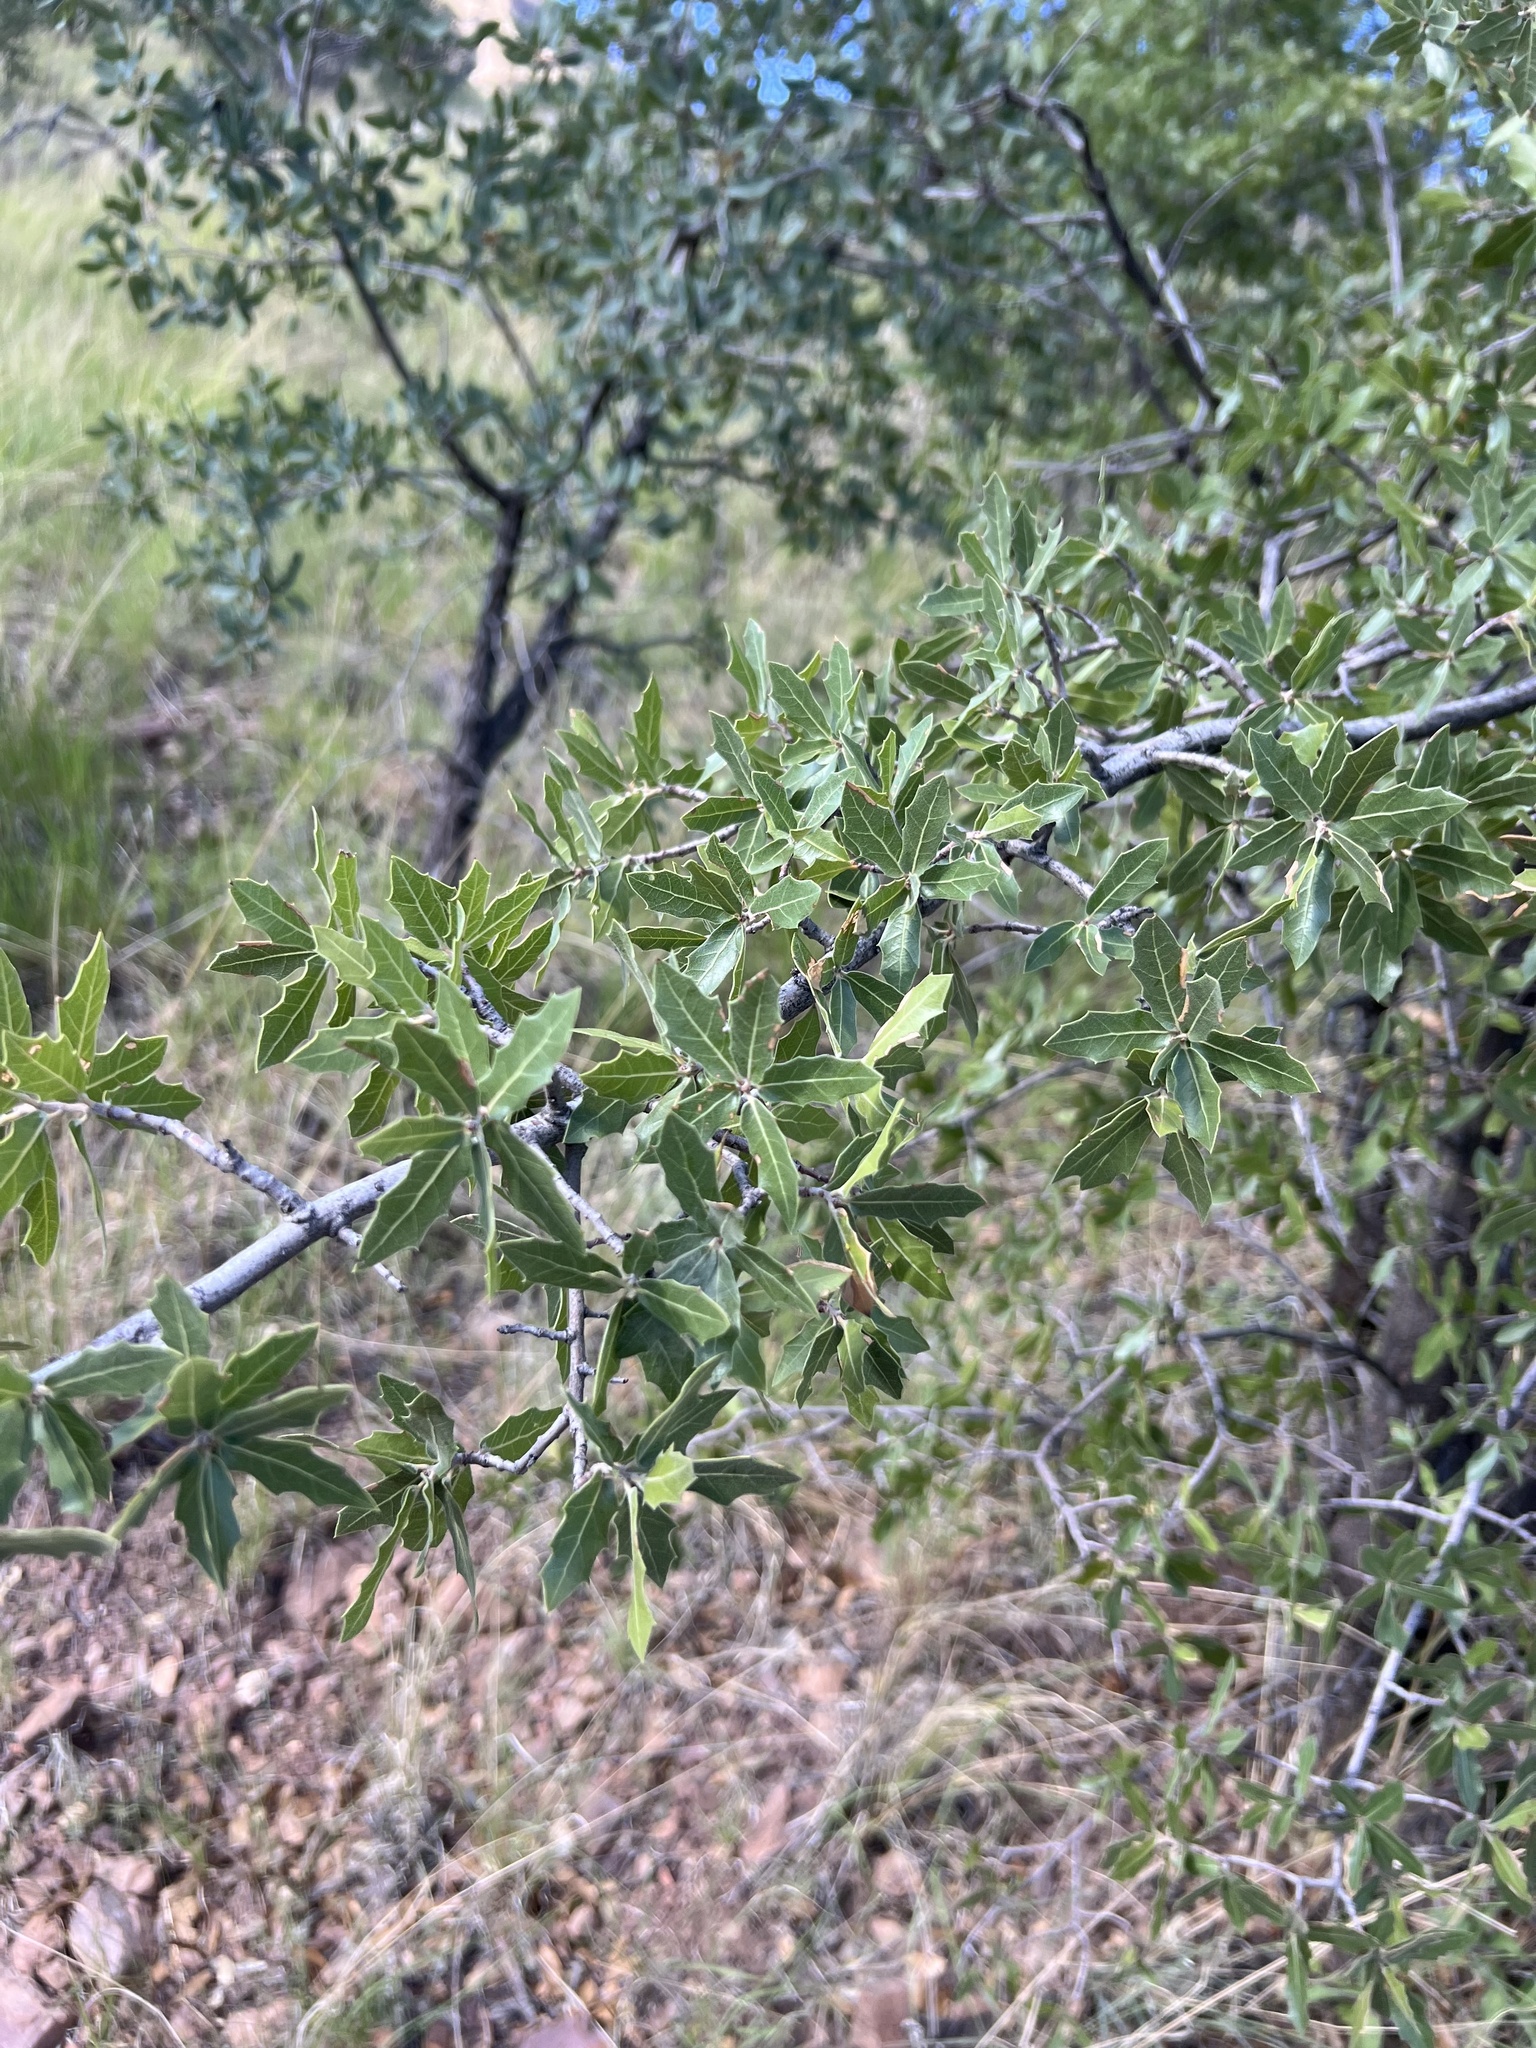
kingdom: Plantae
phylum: Tracheophyta
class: Magnoliopsida
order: Fagales
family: Fagaceae
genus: Quercus
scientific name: Quercus emoryi
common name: Emory oak
